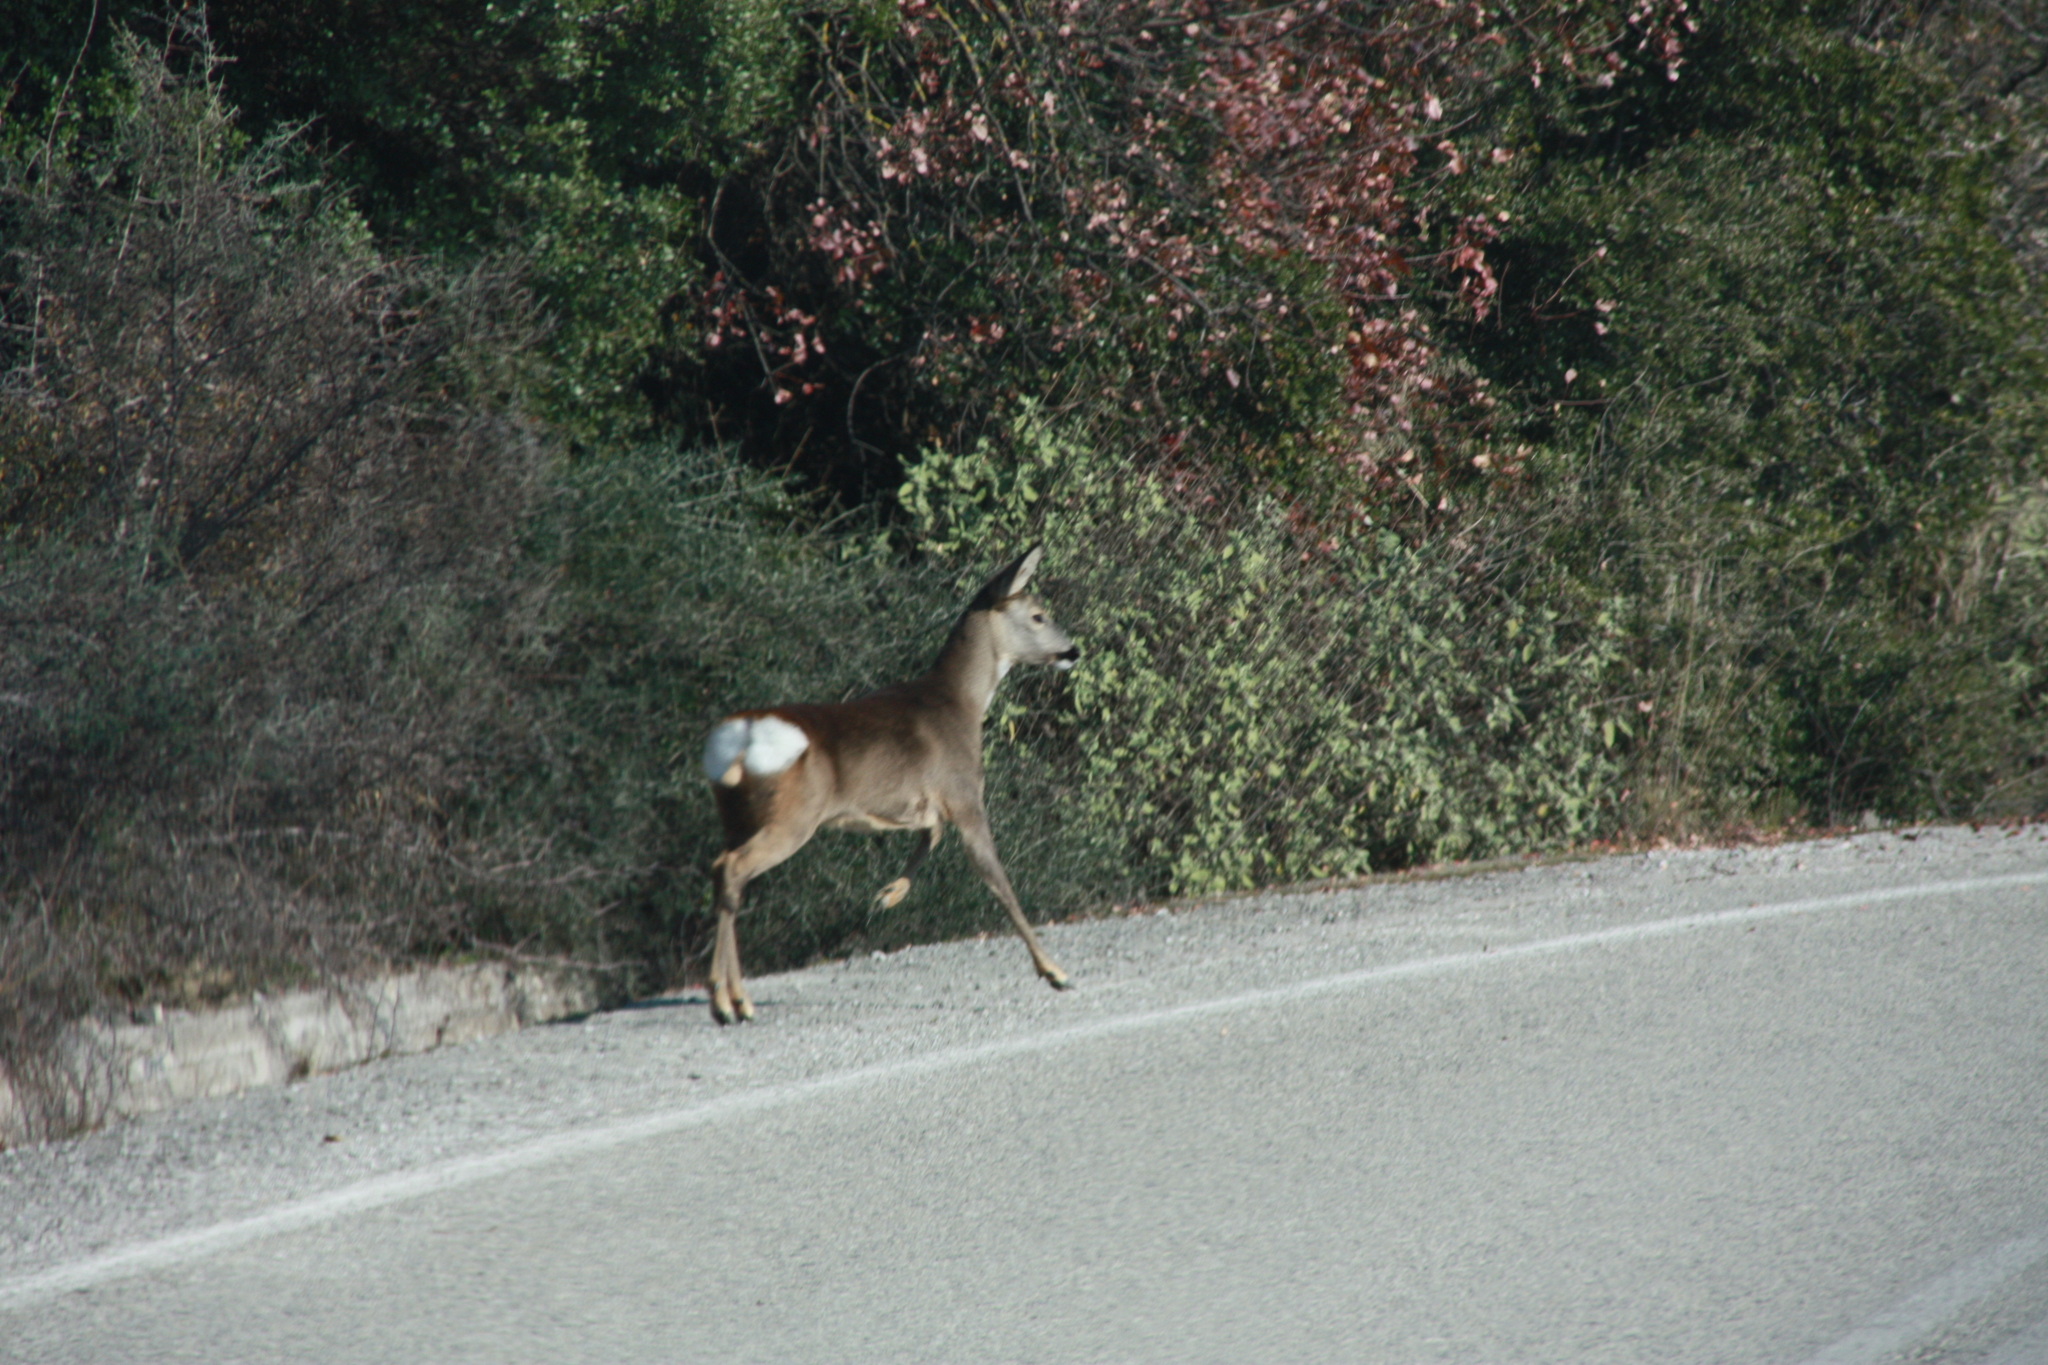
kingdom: Animalia
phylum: Chordata
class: Mammalia
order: Artiodactyla
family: Cervidae
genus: Capreolus
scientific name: Capreolus capreolus
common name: Western roe deer
